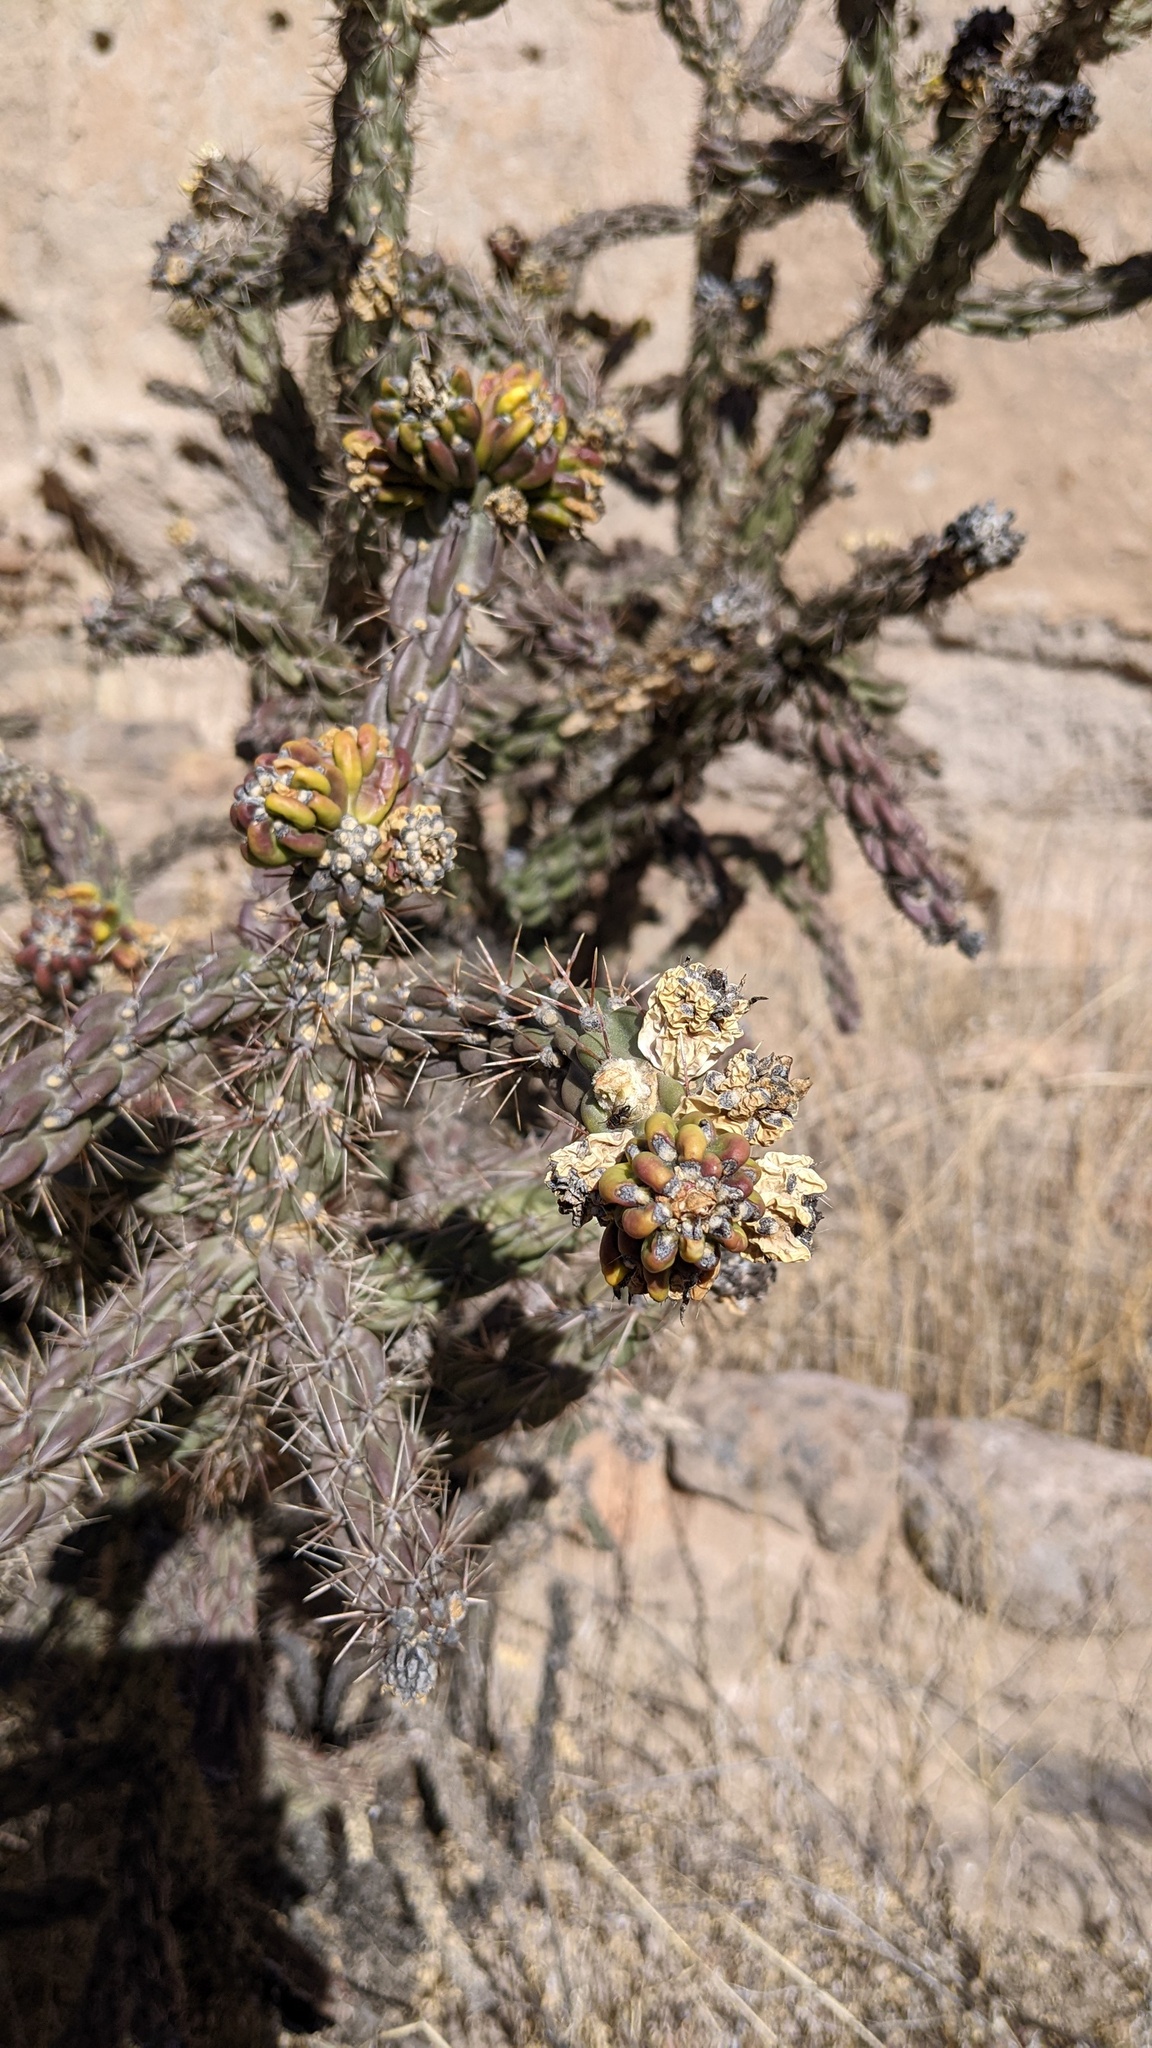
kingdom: Plantae
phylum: Tracheophyta
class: Magnoliopsida
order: Caryophyllales
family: Cactaceae
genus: Cylindropuntia
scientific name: Cylindropuntia imbricata
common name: Candelabrum cactus
